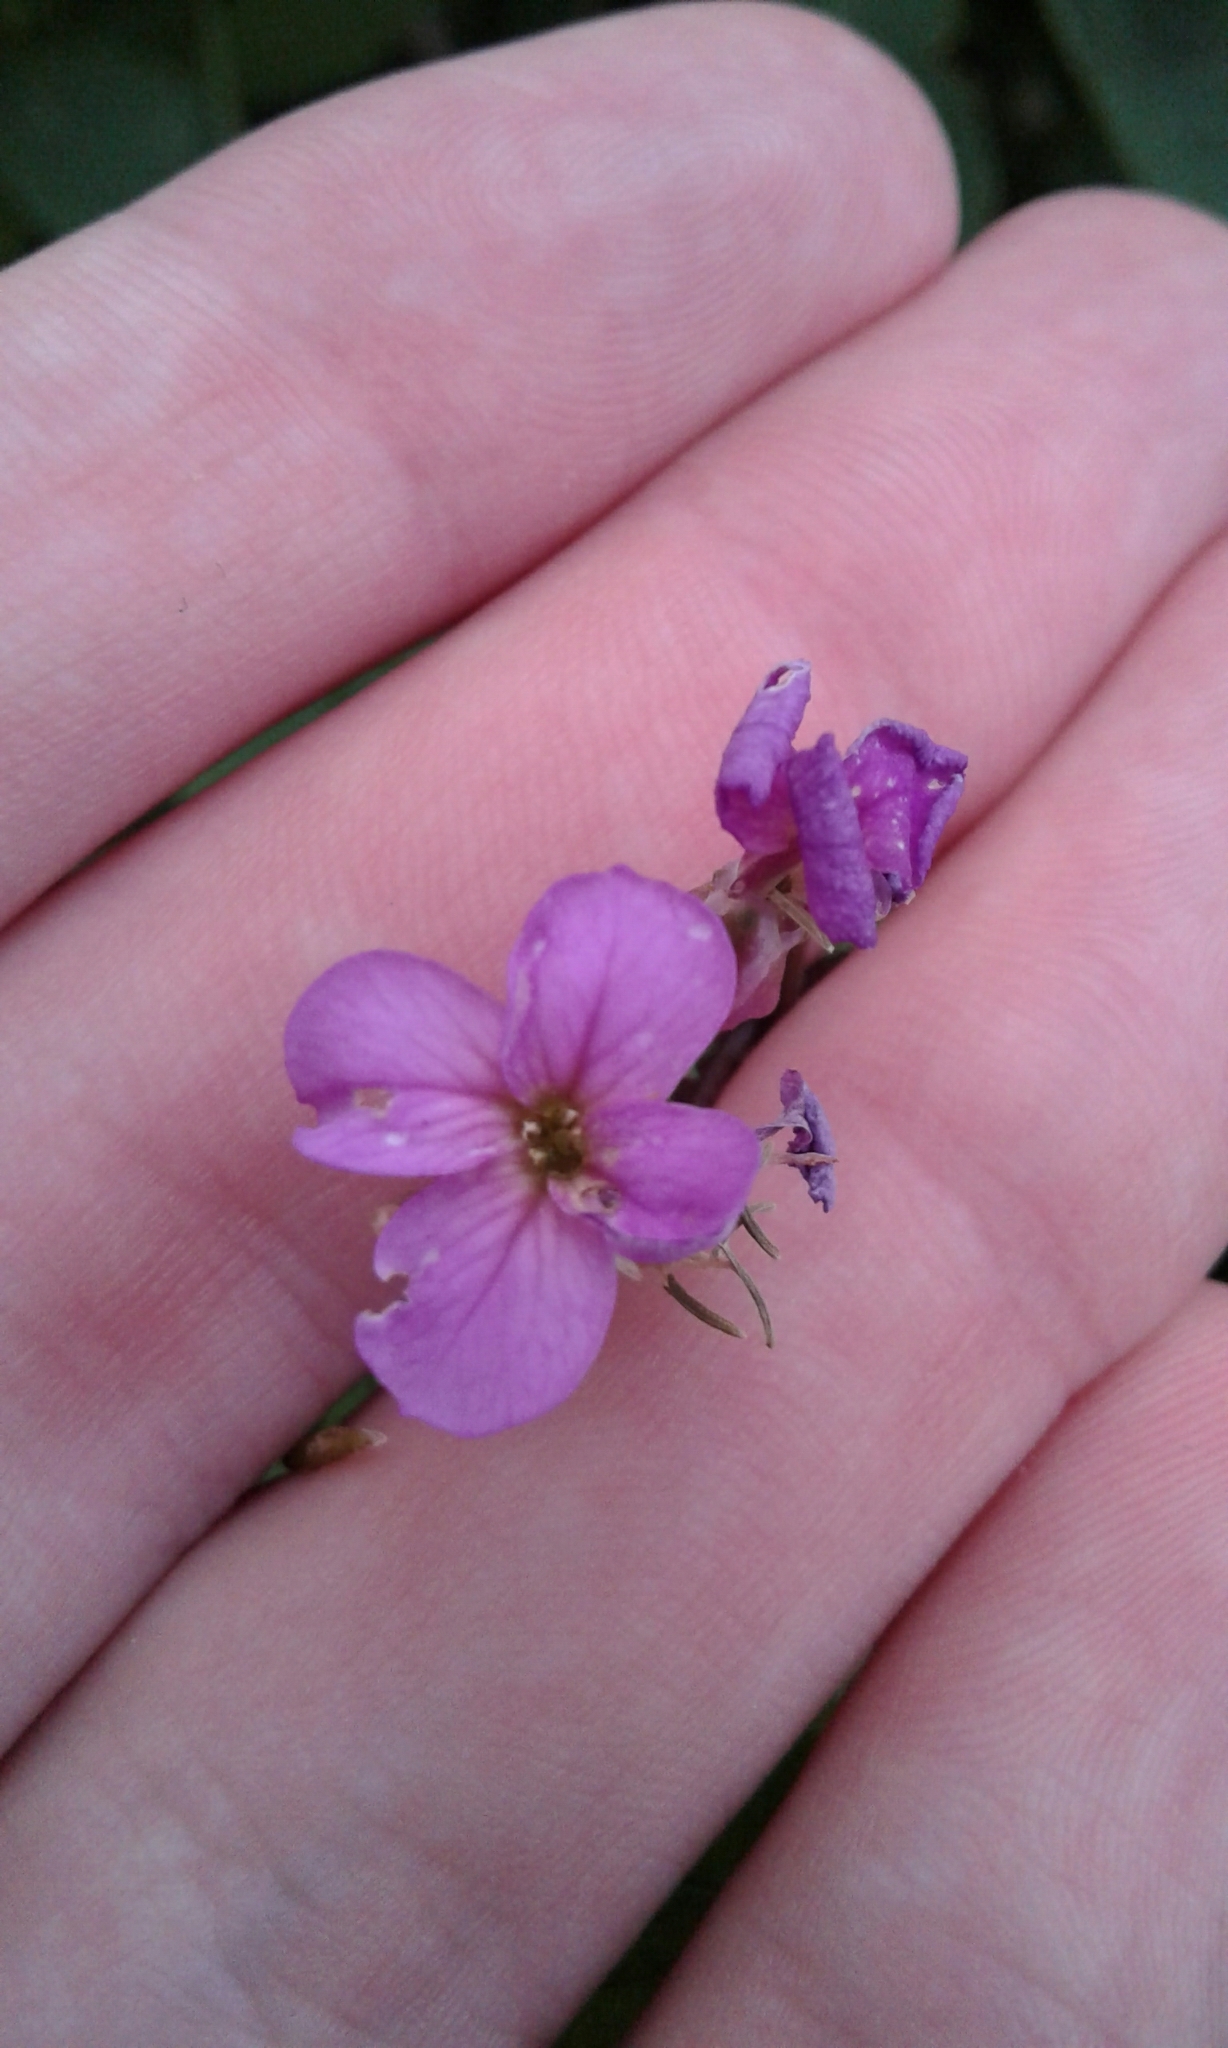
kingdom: Plantae
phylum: Tracheophyta
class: Magnoliopsida
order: Brassicales
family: Brassicaceae
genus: Hesperis
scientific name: Hesperis matronalis
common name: Dame's-violet
